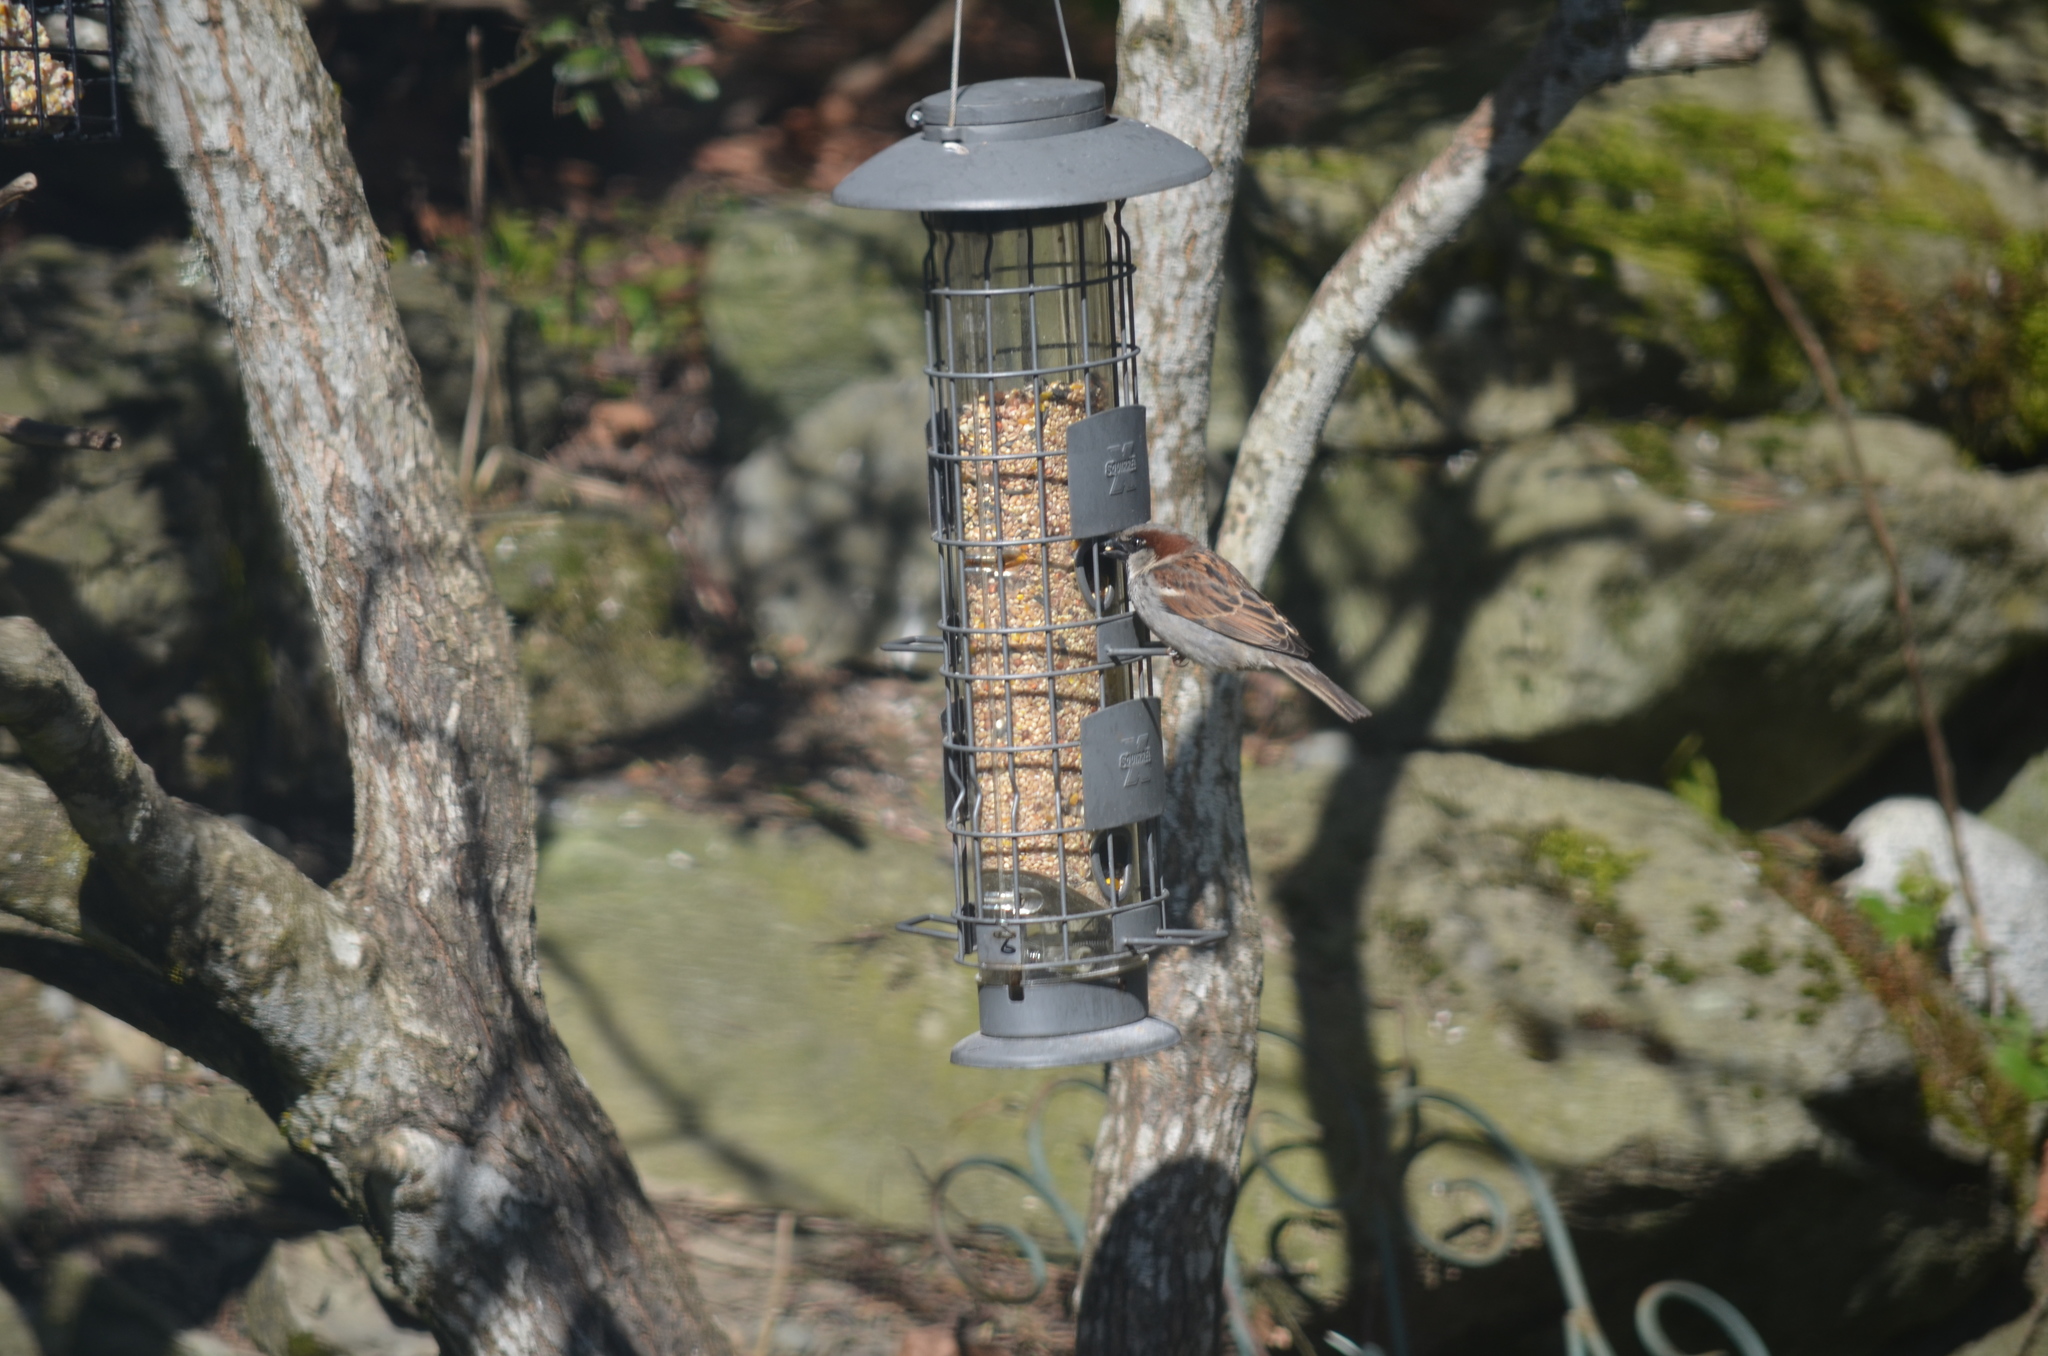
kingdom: Animalia
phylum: Chordata
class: Aves
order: Passeriformes
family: Passeridae
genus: Passer
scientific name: Passer domesticus
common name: House sparrow
